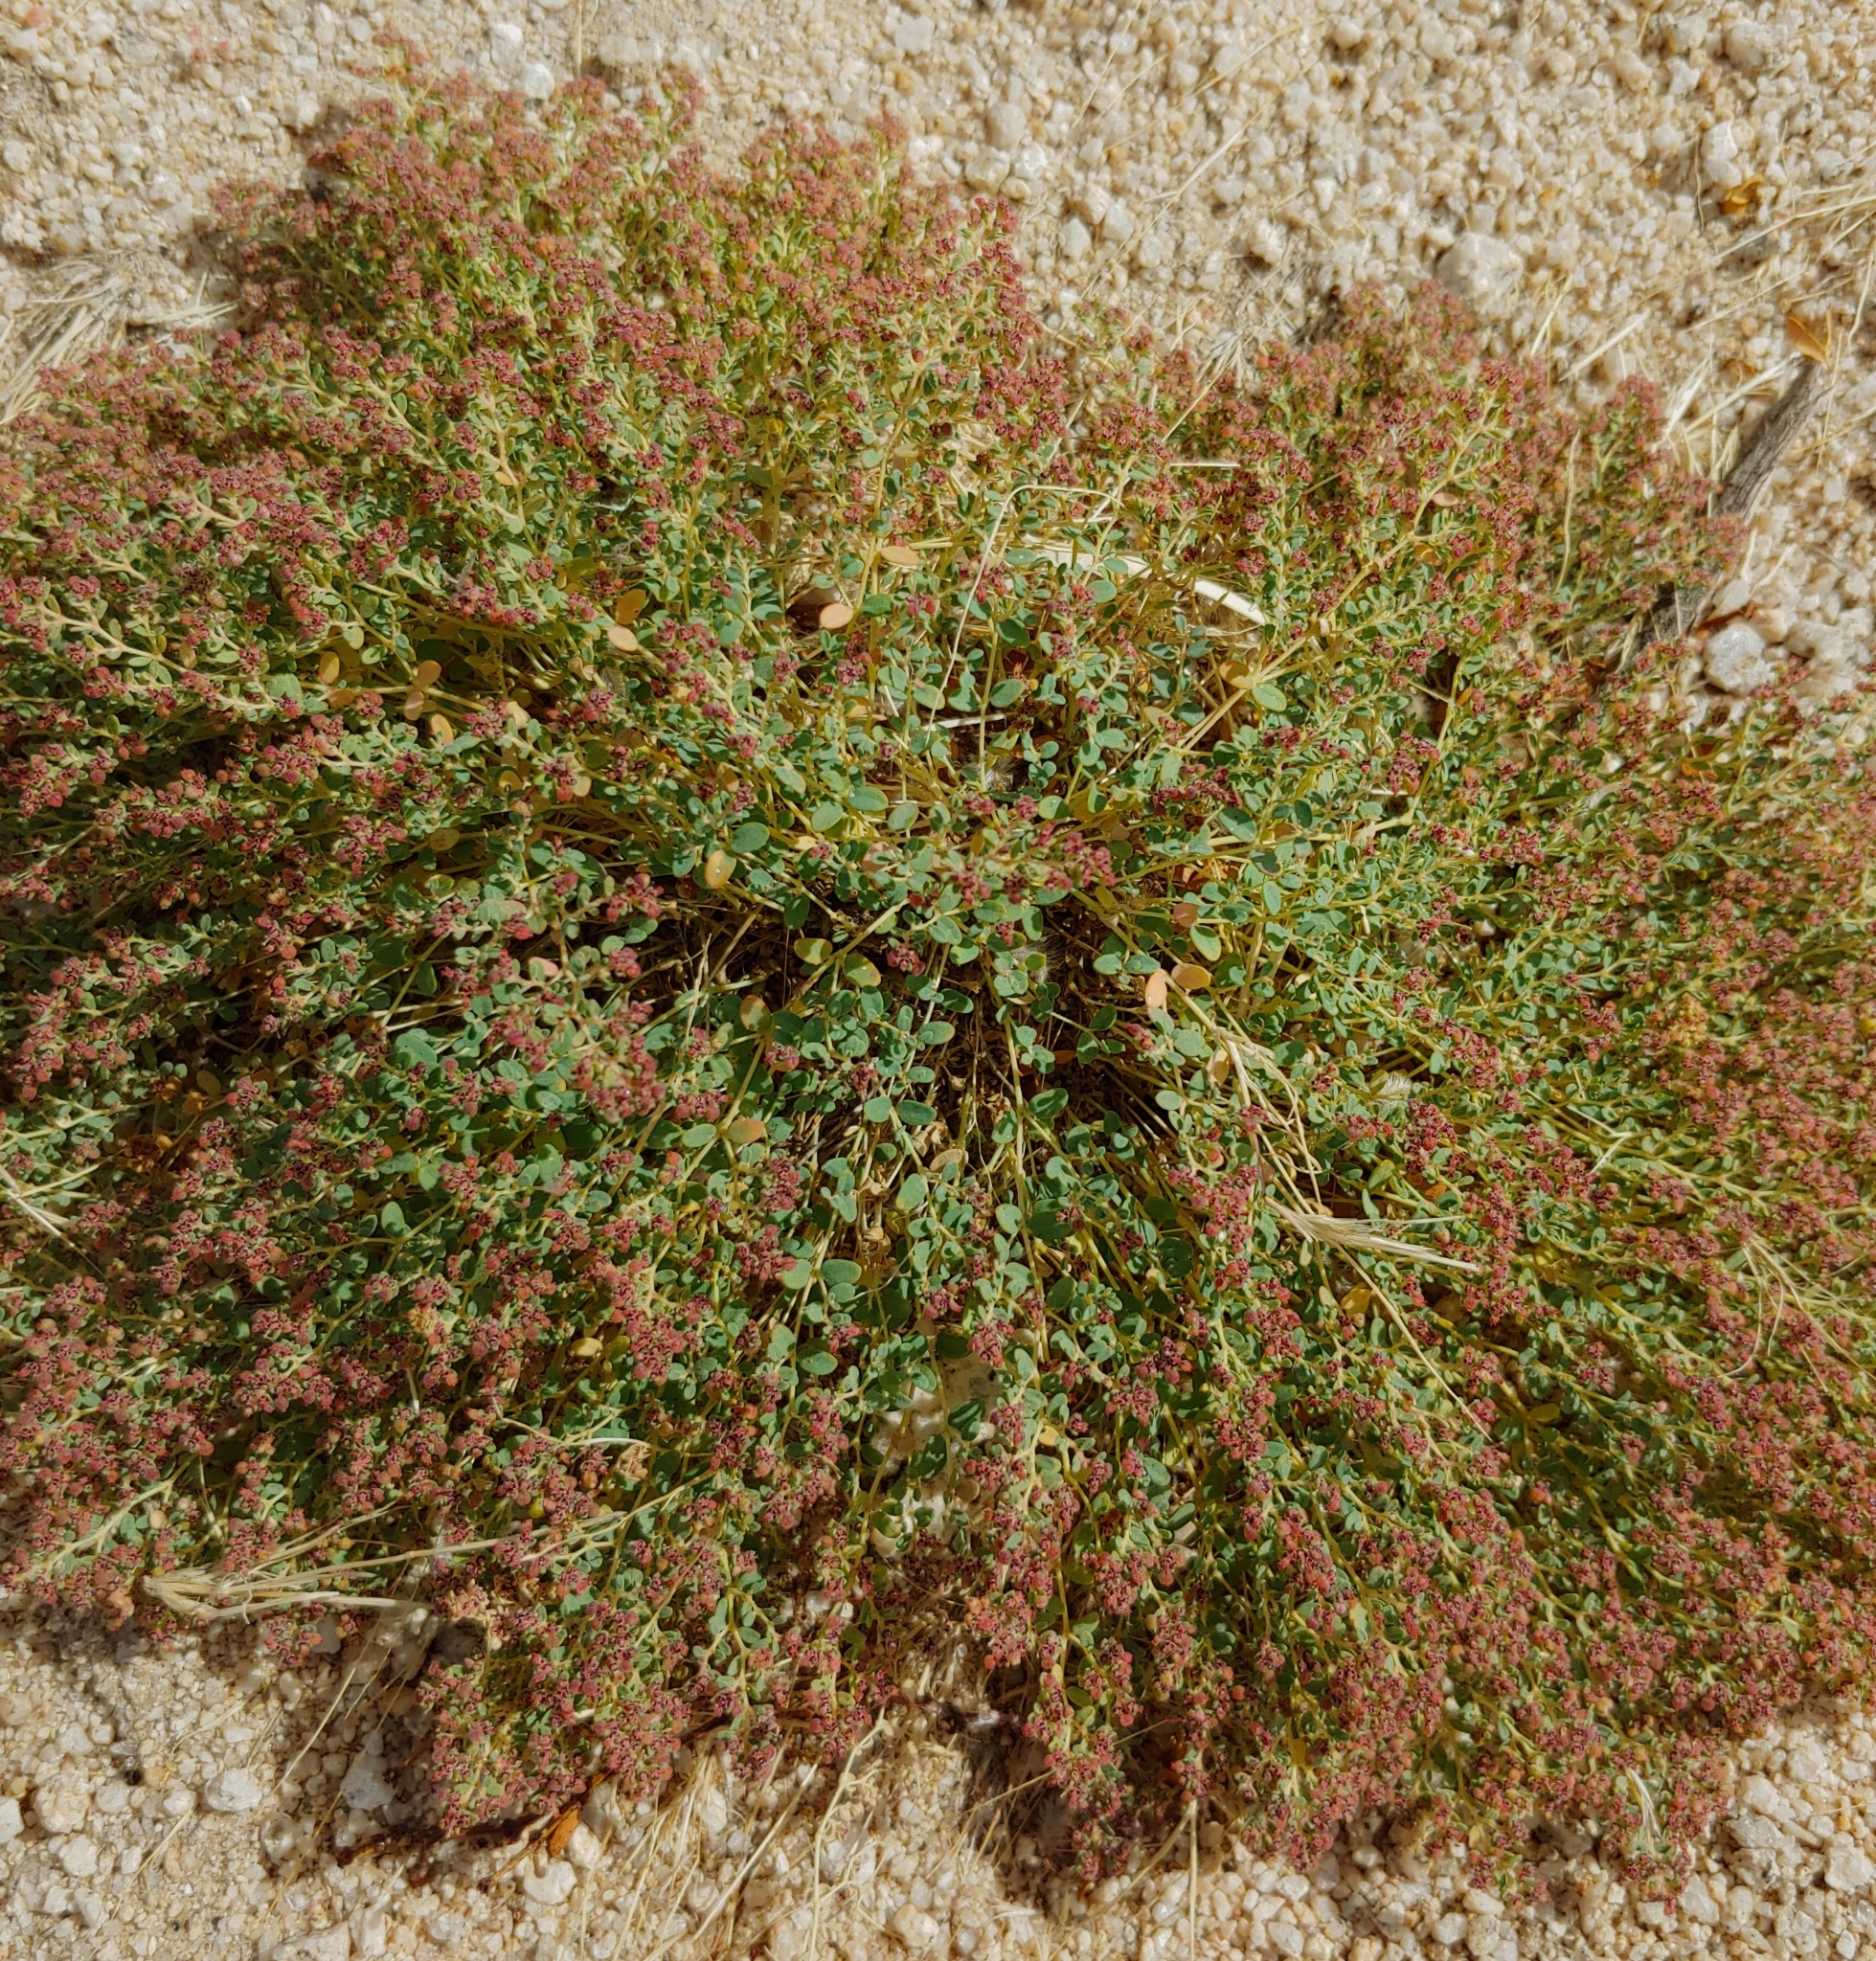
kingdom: Plantae
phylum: Tracheophyta
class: Magnoliopsida
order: Malpighiales
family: Euphorbiaceae
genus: Euphorbia
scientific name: Euphorbia polycarpa
